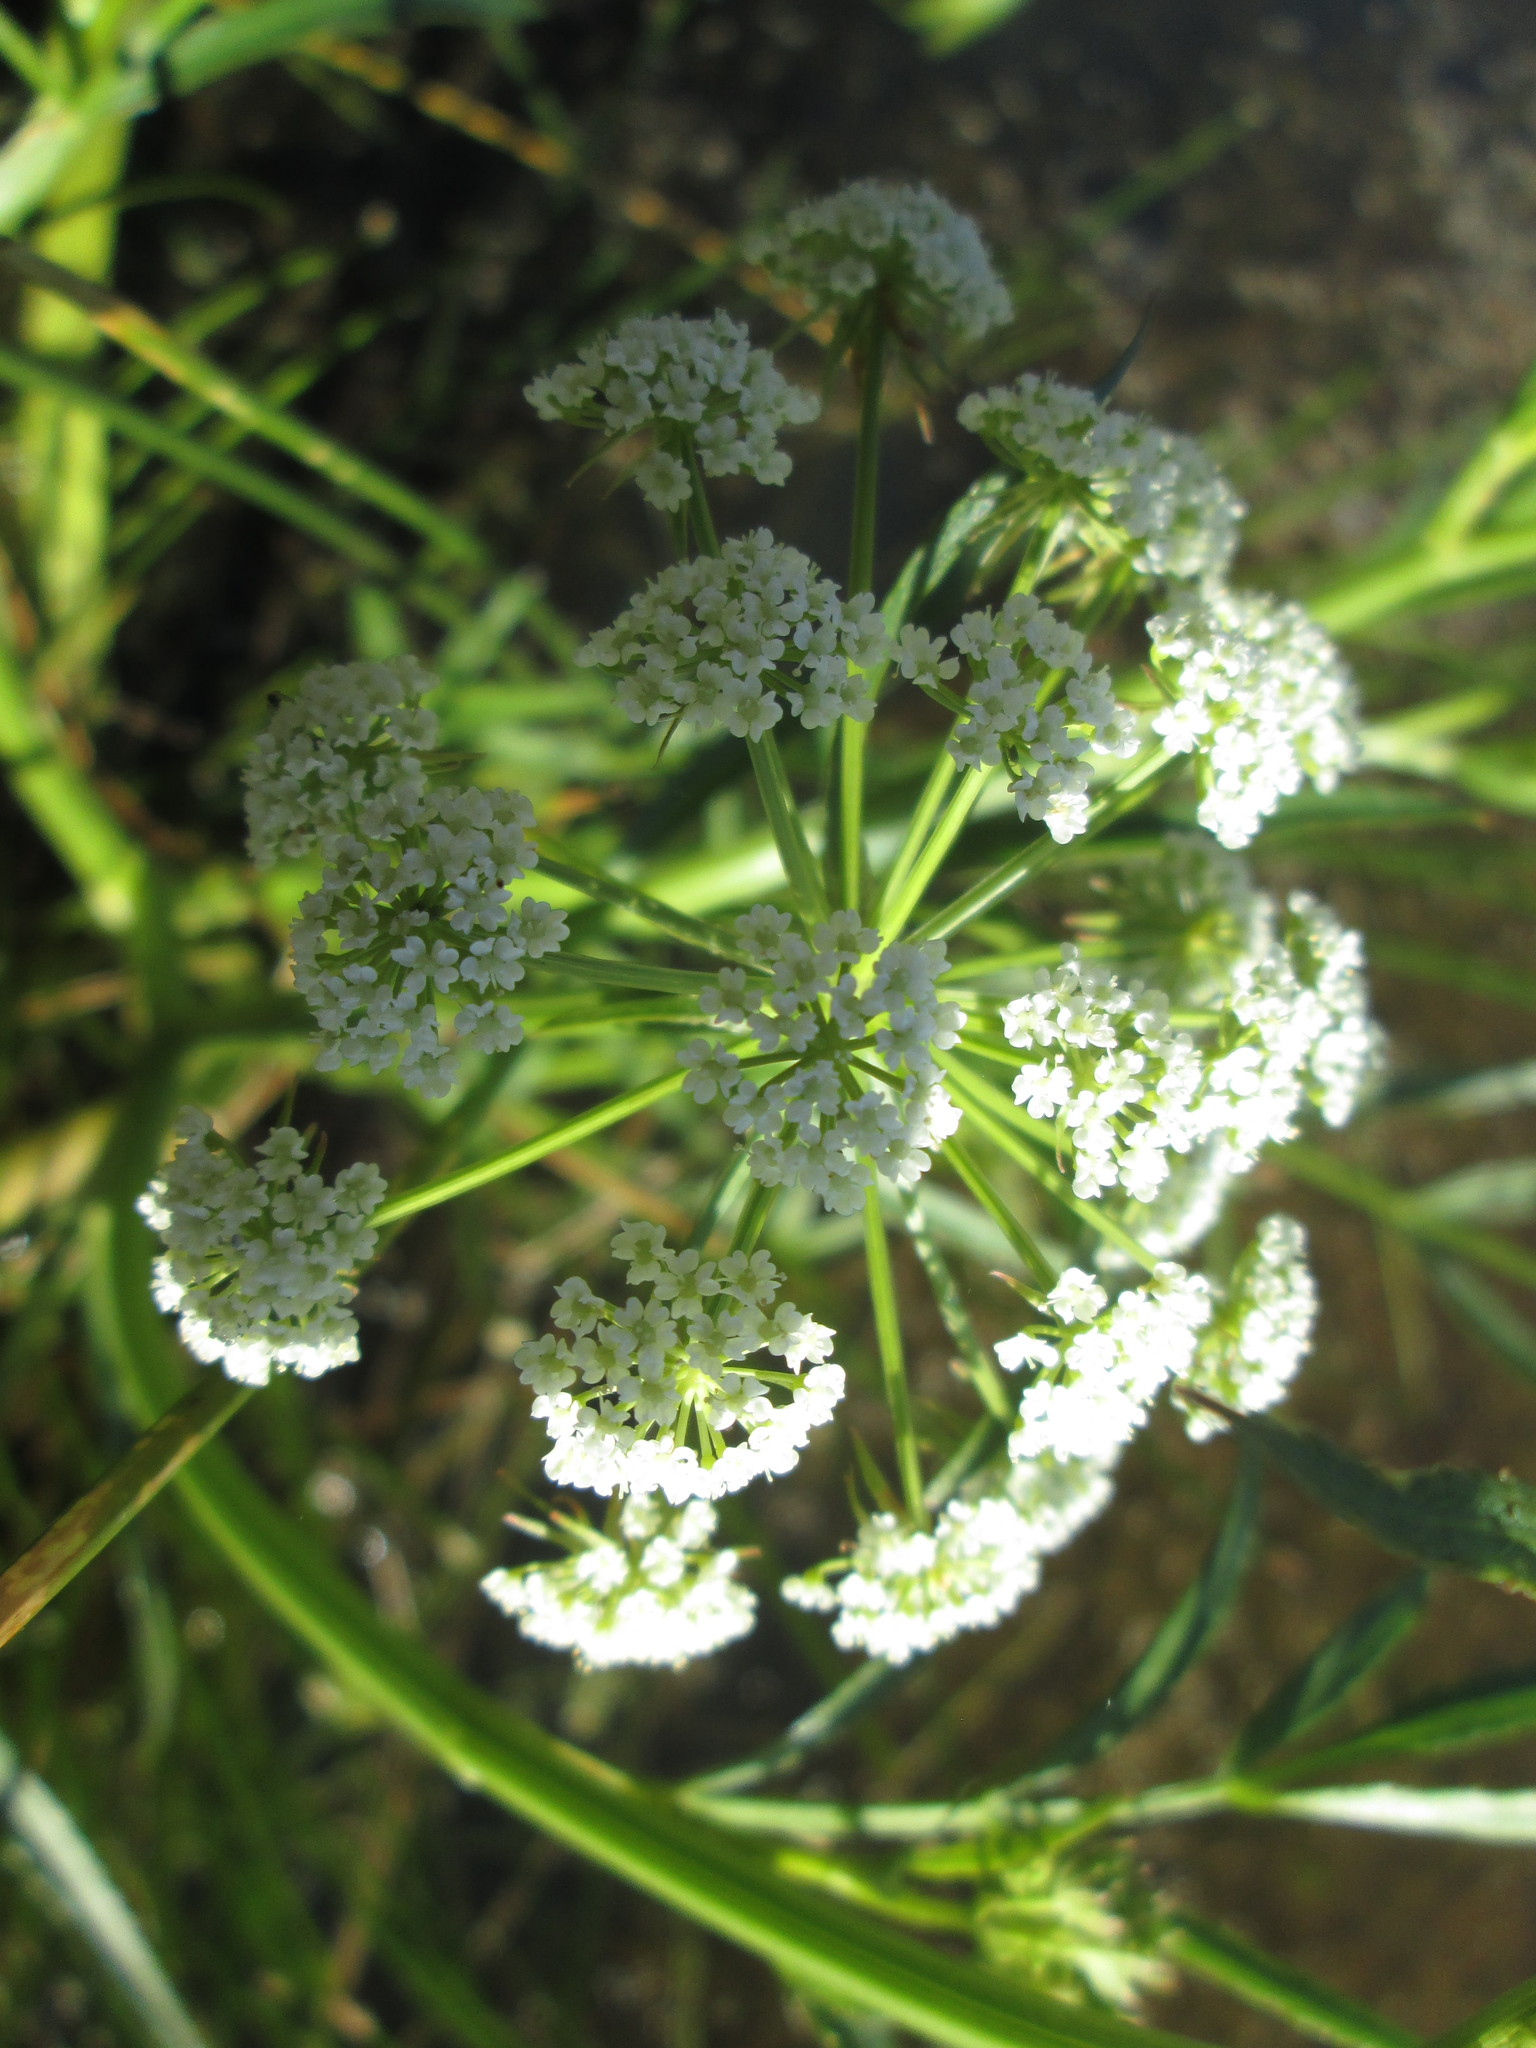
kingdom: Plantae
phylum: Tracheophyta
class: Magnoliopsida
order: Apiales
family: Apiaceae
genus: Cicuta
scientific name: Cicuta maculata
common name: Spotted cowbane
